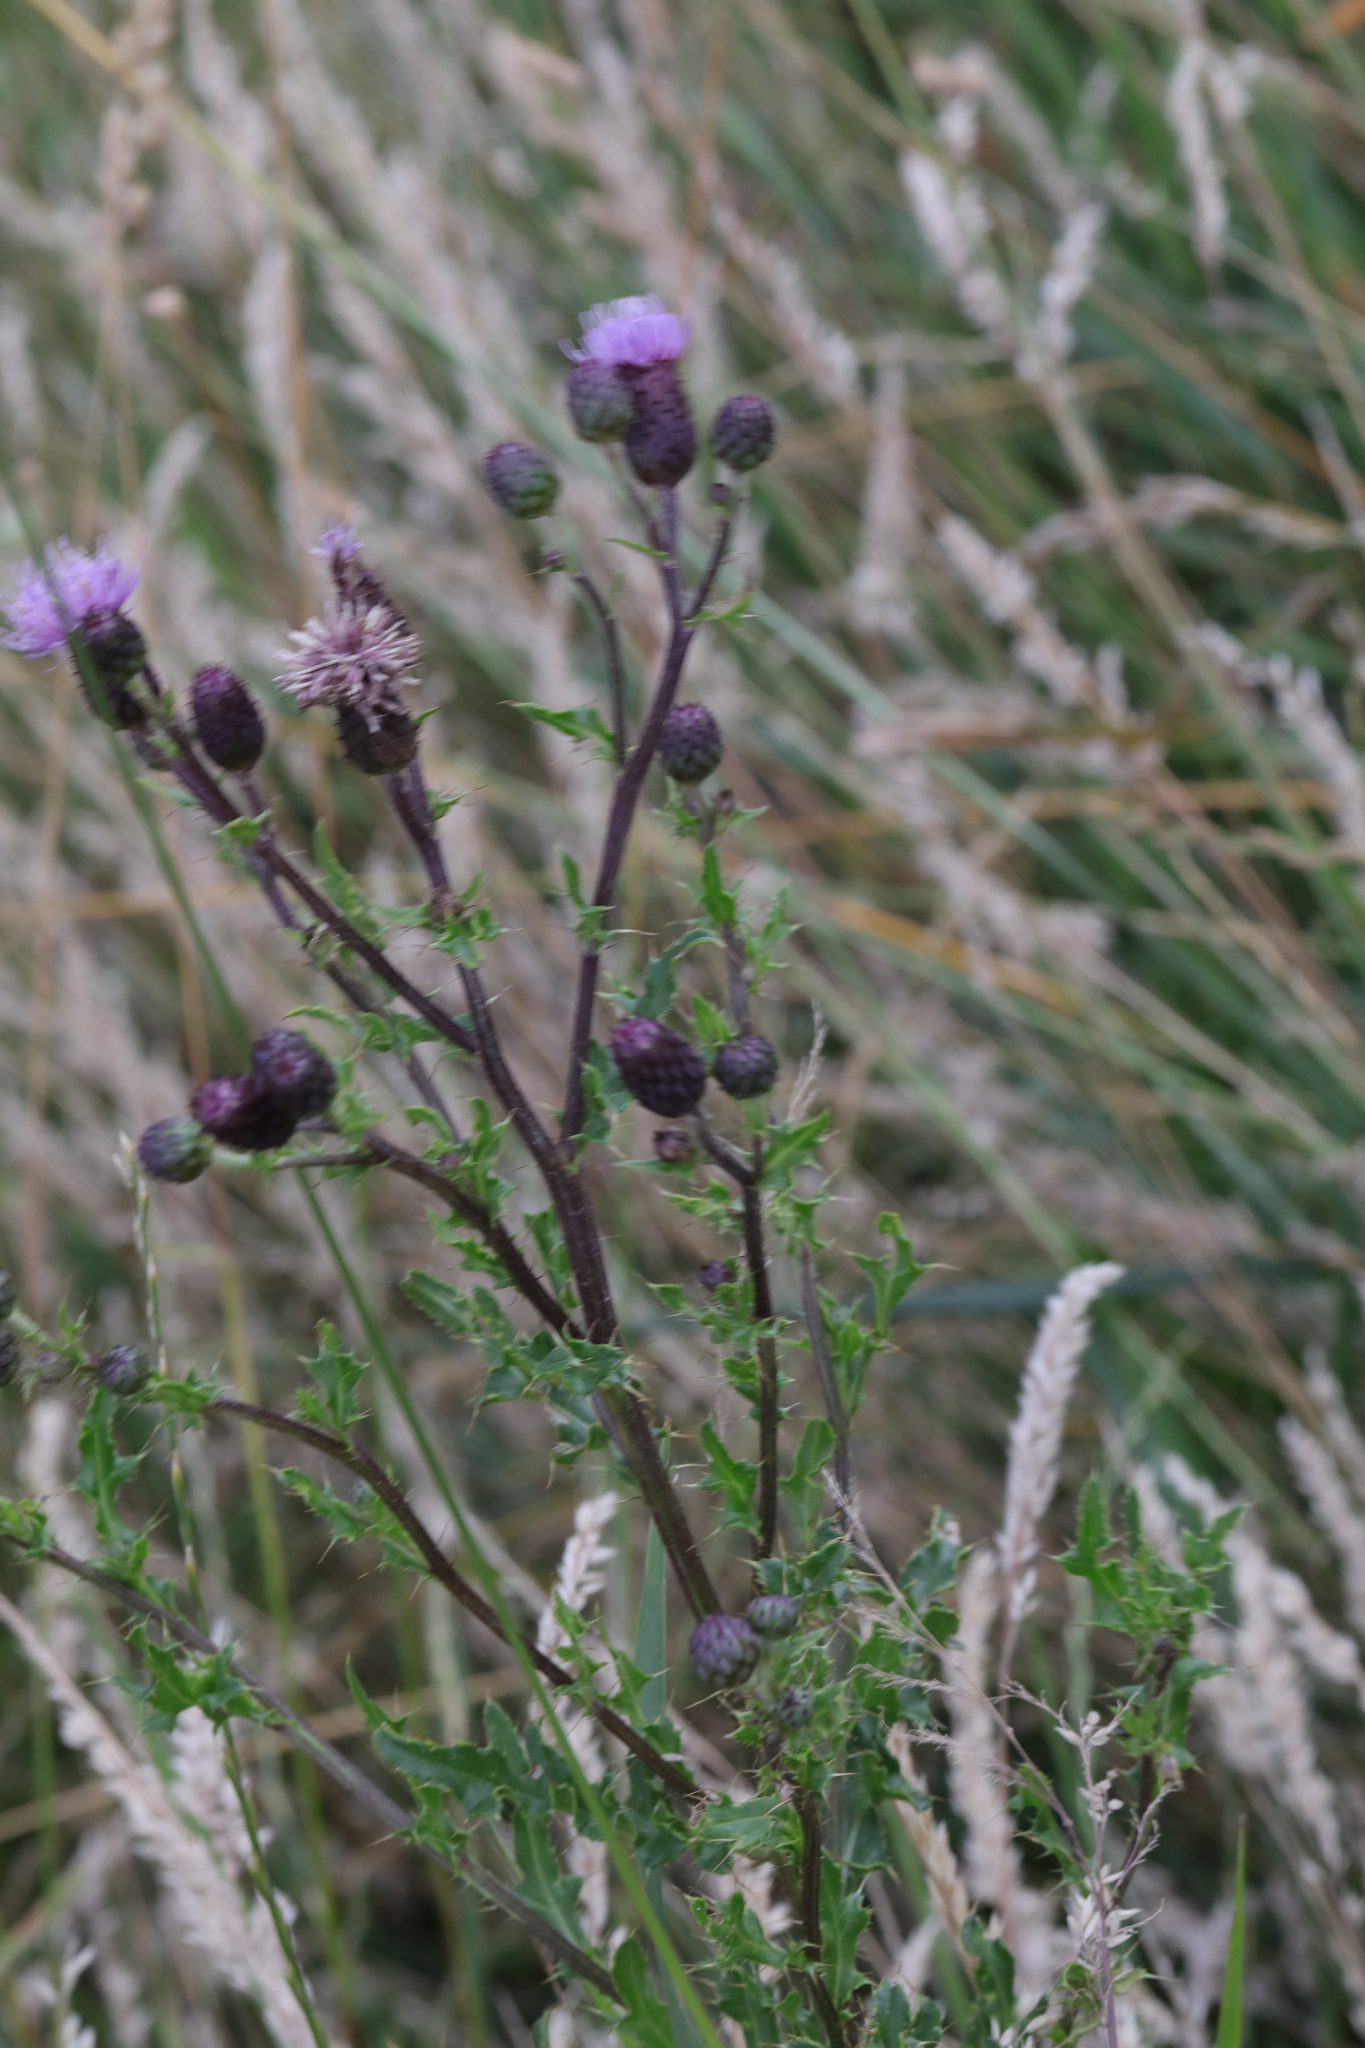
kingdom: Plantae
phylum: Tracheophyta
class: Magnoliopsida
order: Asterales
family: Asteraceae
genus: Cirsium
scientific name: Cirsium arvense
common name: Creeping thistle
